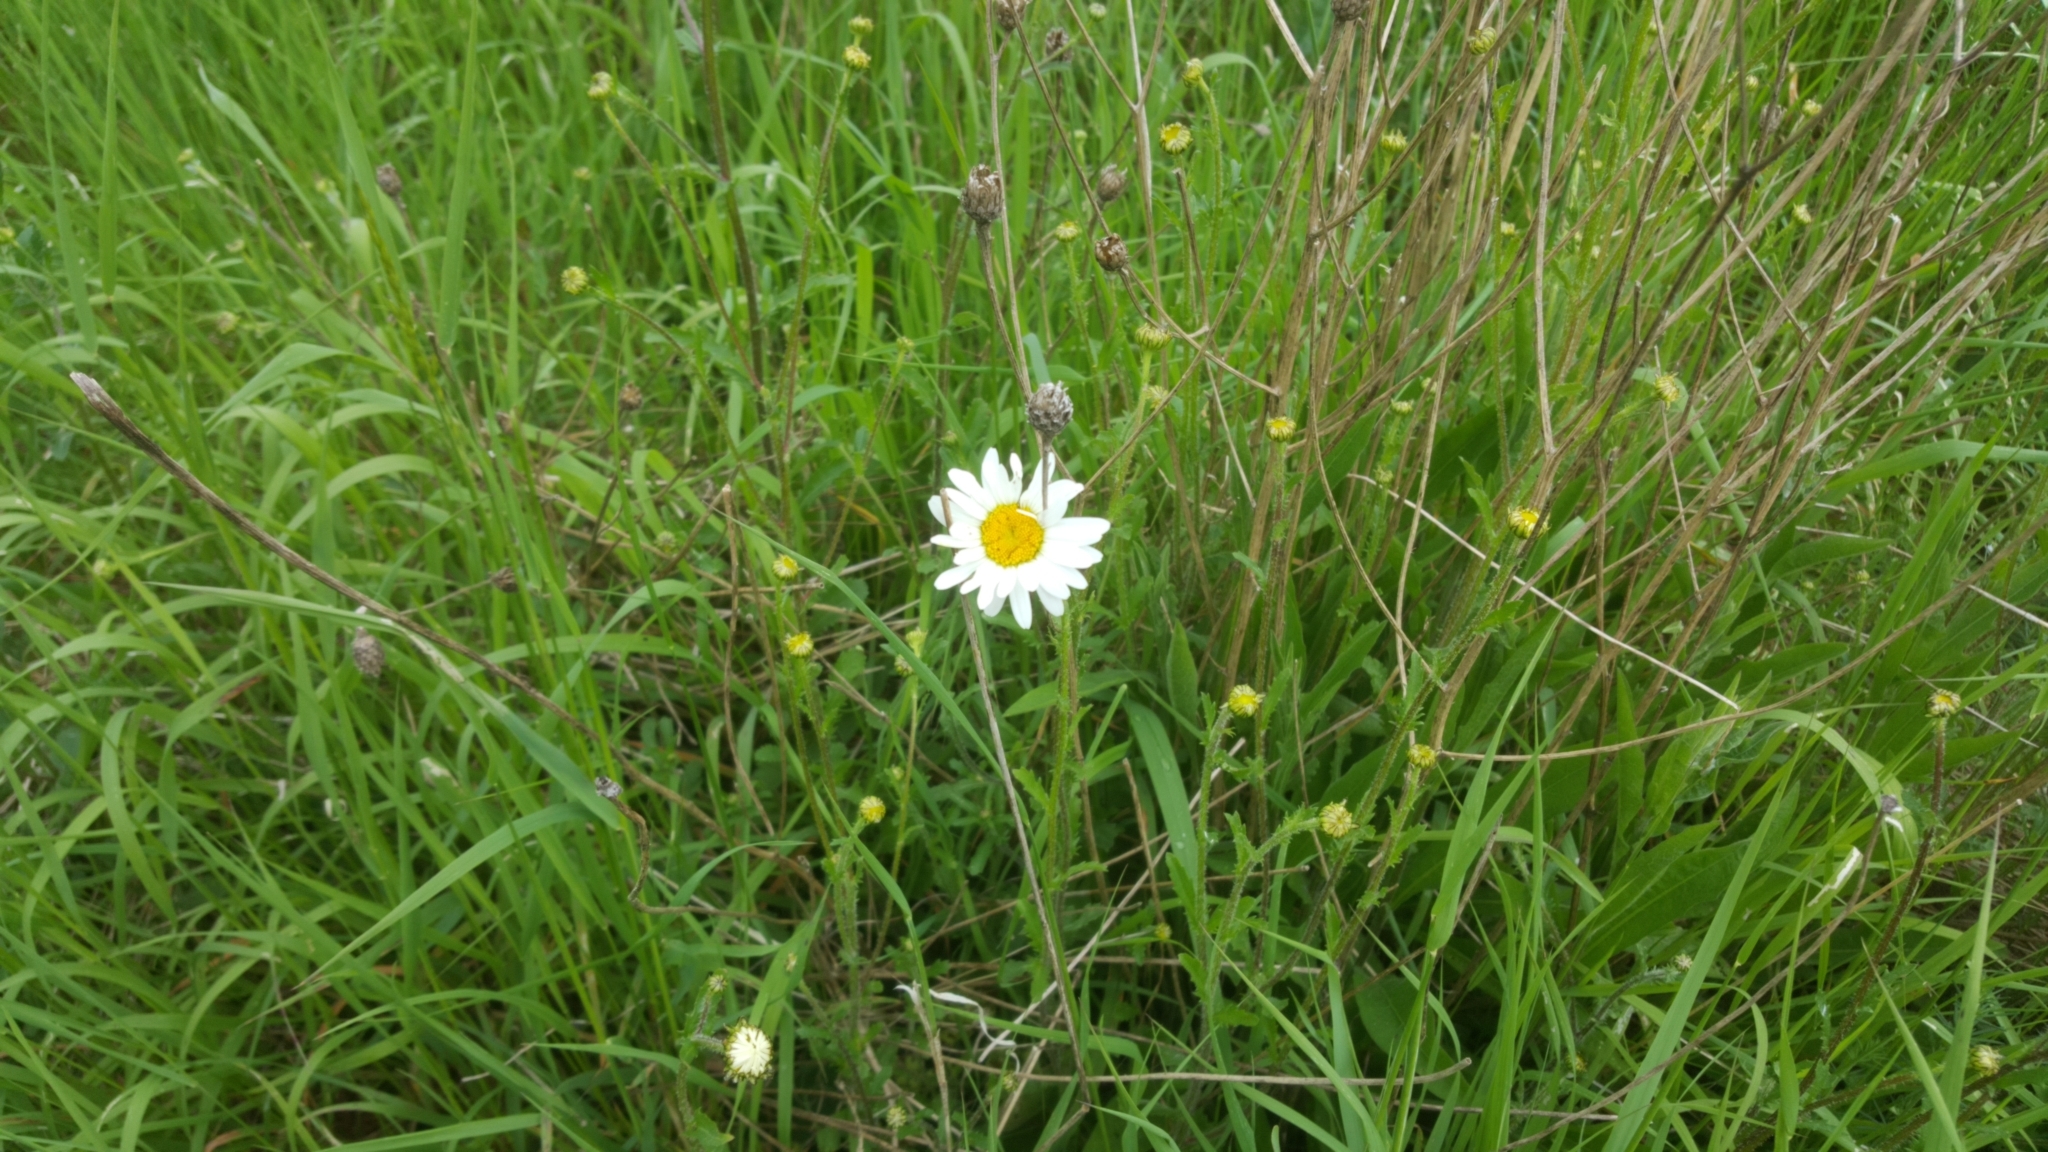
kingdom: Plantae
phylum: Tracheophyta
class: Magnoliopsida
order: Asterales
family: Asteraceae
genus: Leucanthemum
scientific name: Leucanthemum vulgare
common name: Oxeye daisy
